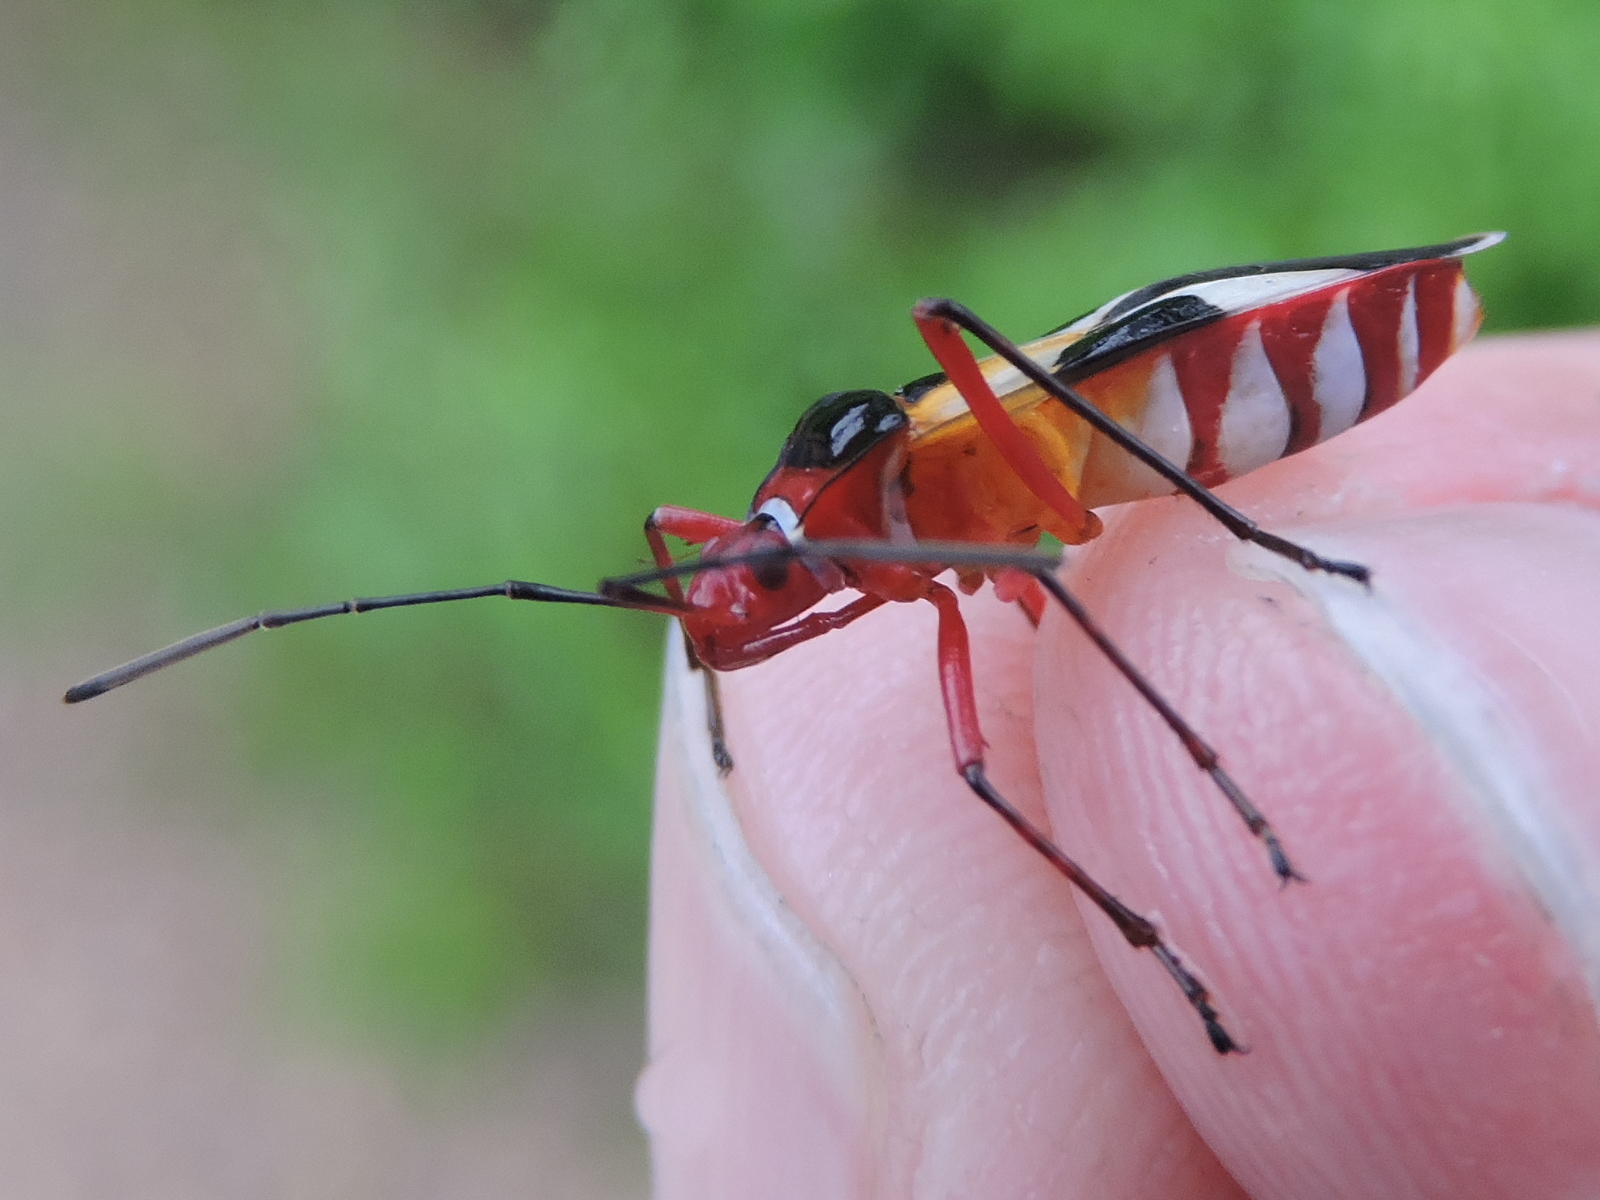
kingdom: Animalia
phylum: Arthropoda
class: Insecta
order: Hemiptera
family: Pyrrhocoridae
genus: Dysdercus
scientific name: Dysdercus concinnus
